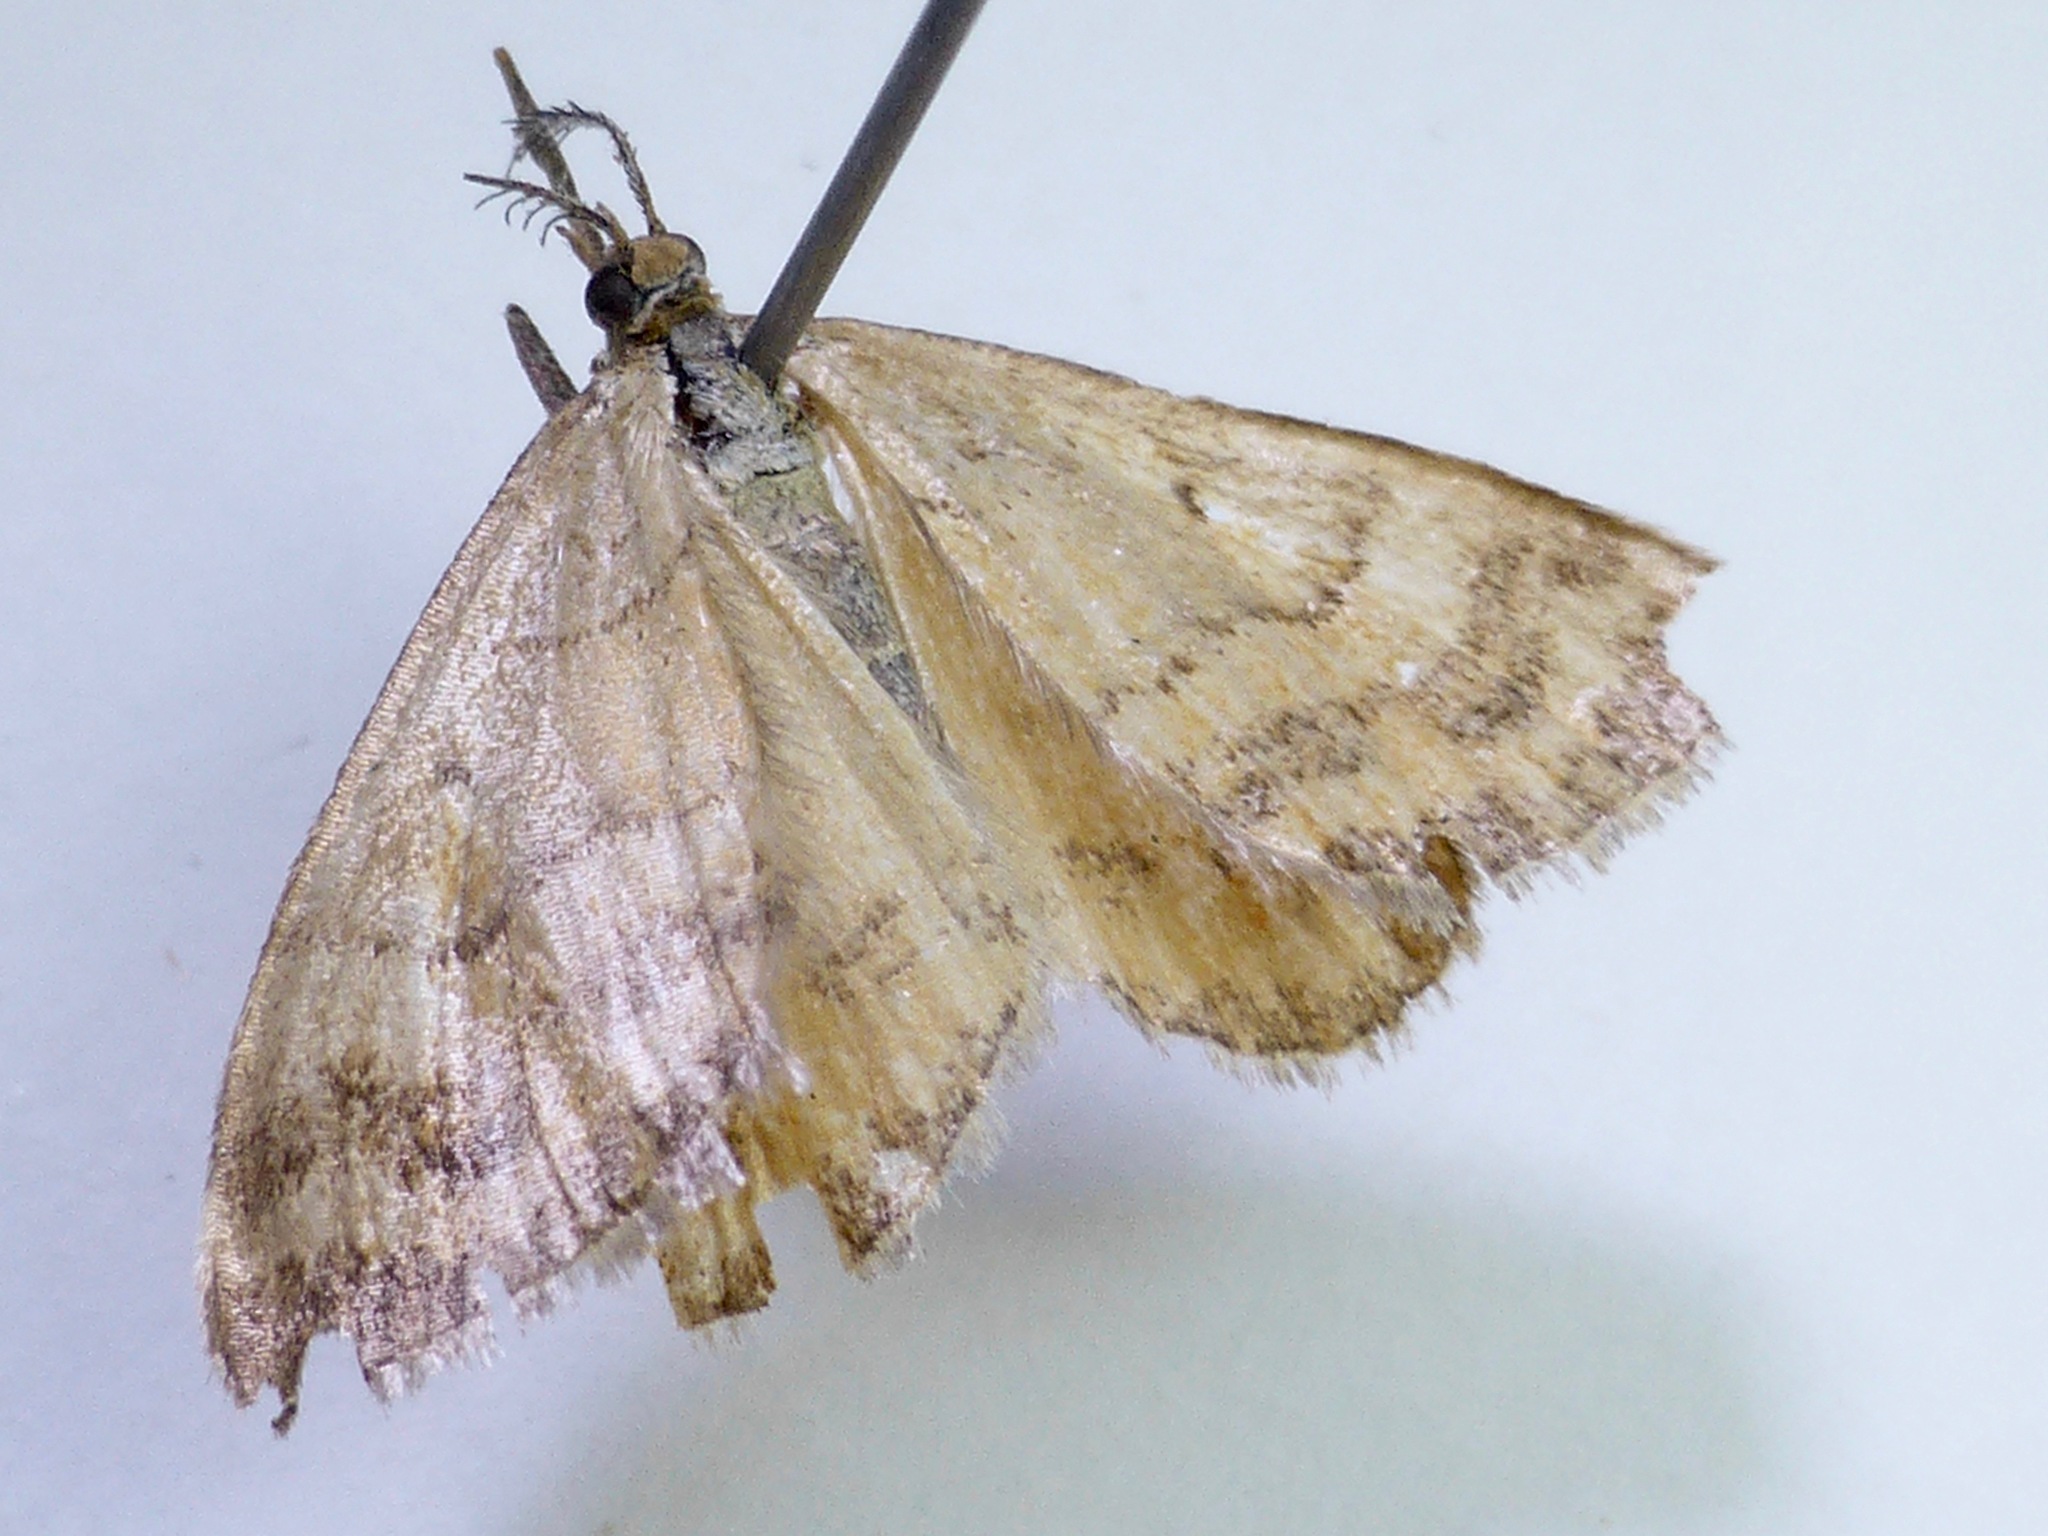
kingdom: Animalia
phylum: Arthropoda
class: Insecta
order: Lepidoptera
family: Geometridae
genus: Scopula
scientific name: Scopula rubraria
